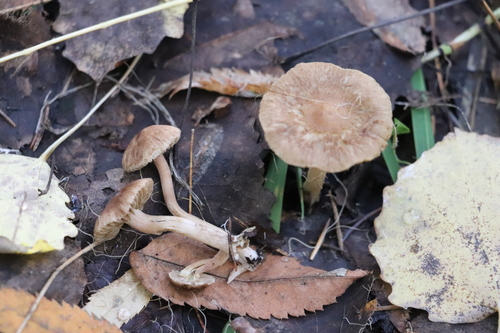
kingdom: Fungi
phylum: Basidiomycota
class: Agaricomycetes
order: Agaricales
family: Inocybaceae
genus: Inocybe
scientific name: Inocybe
